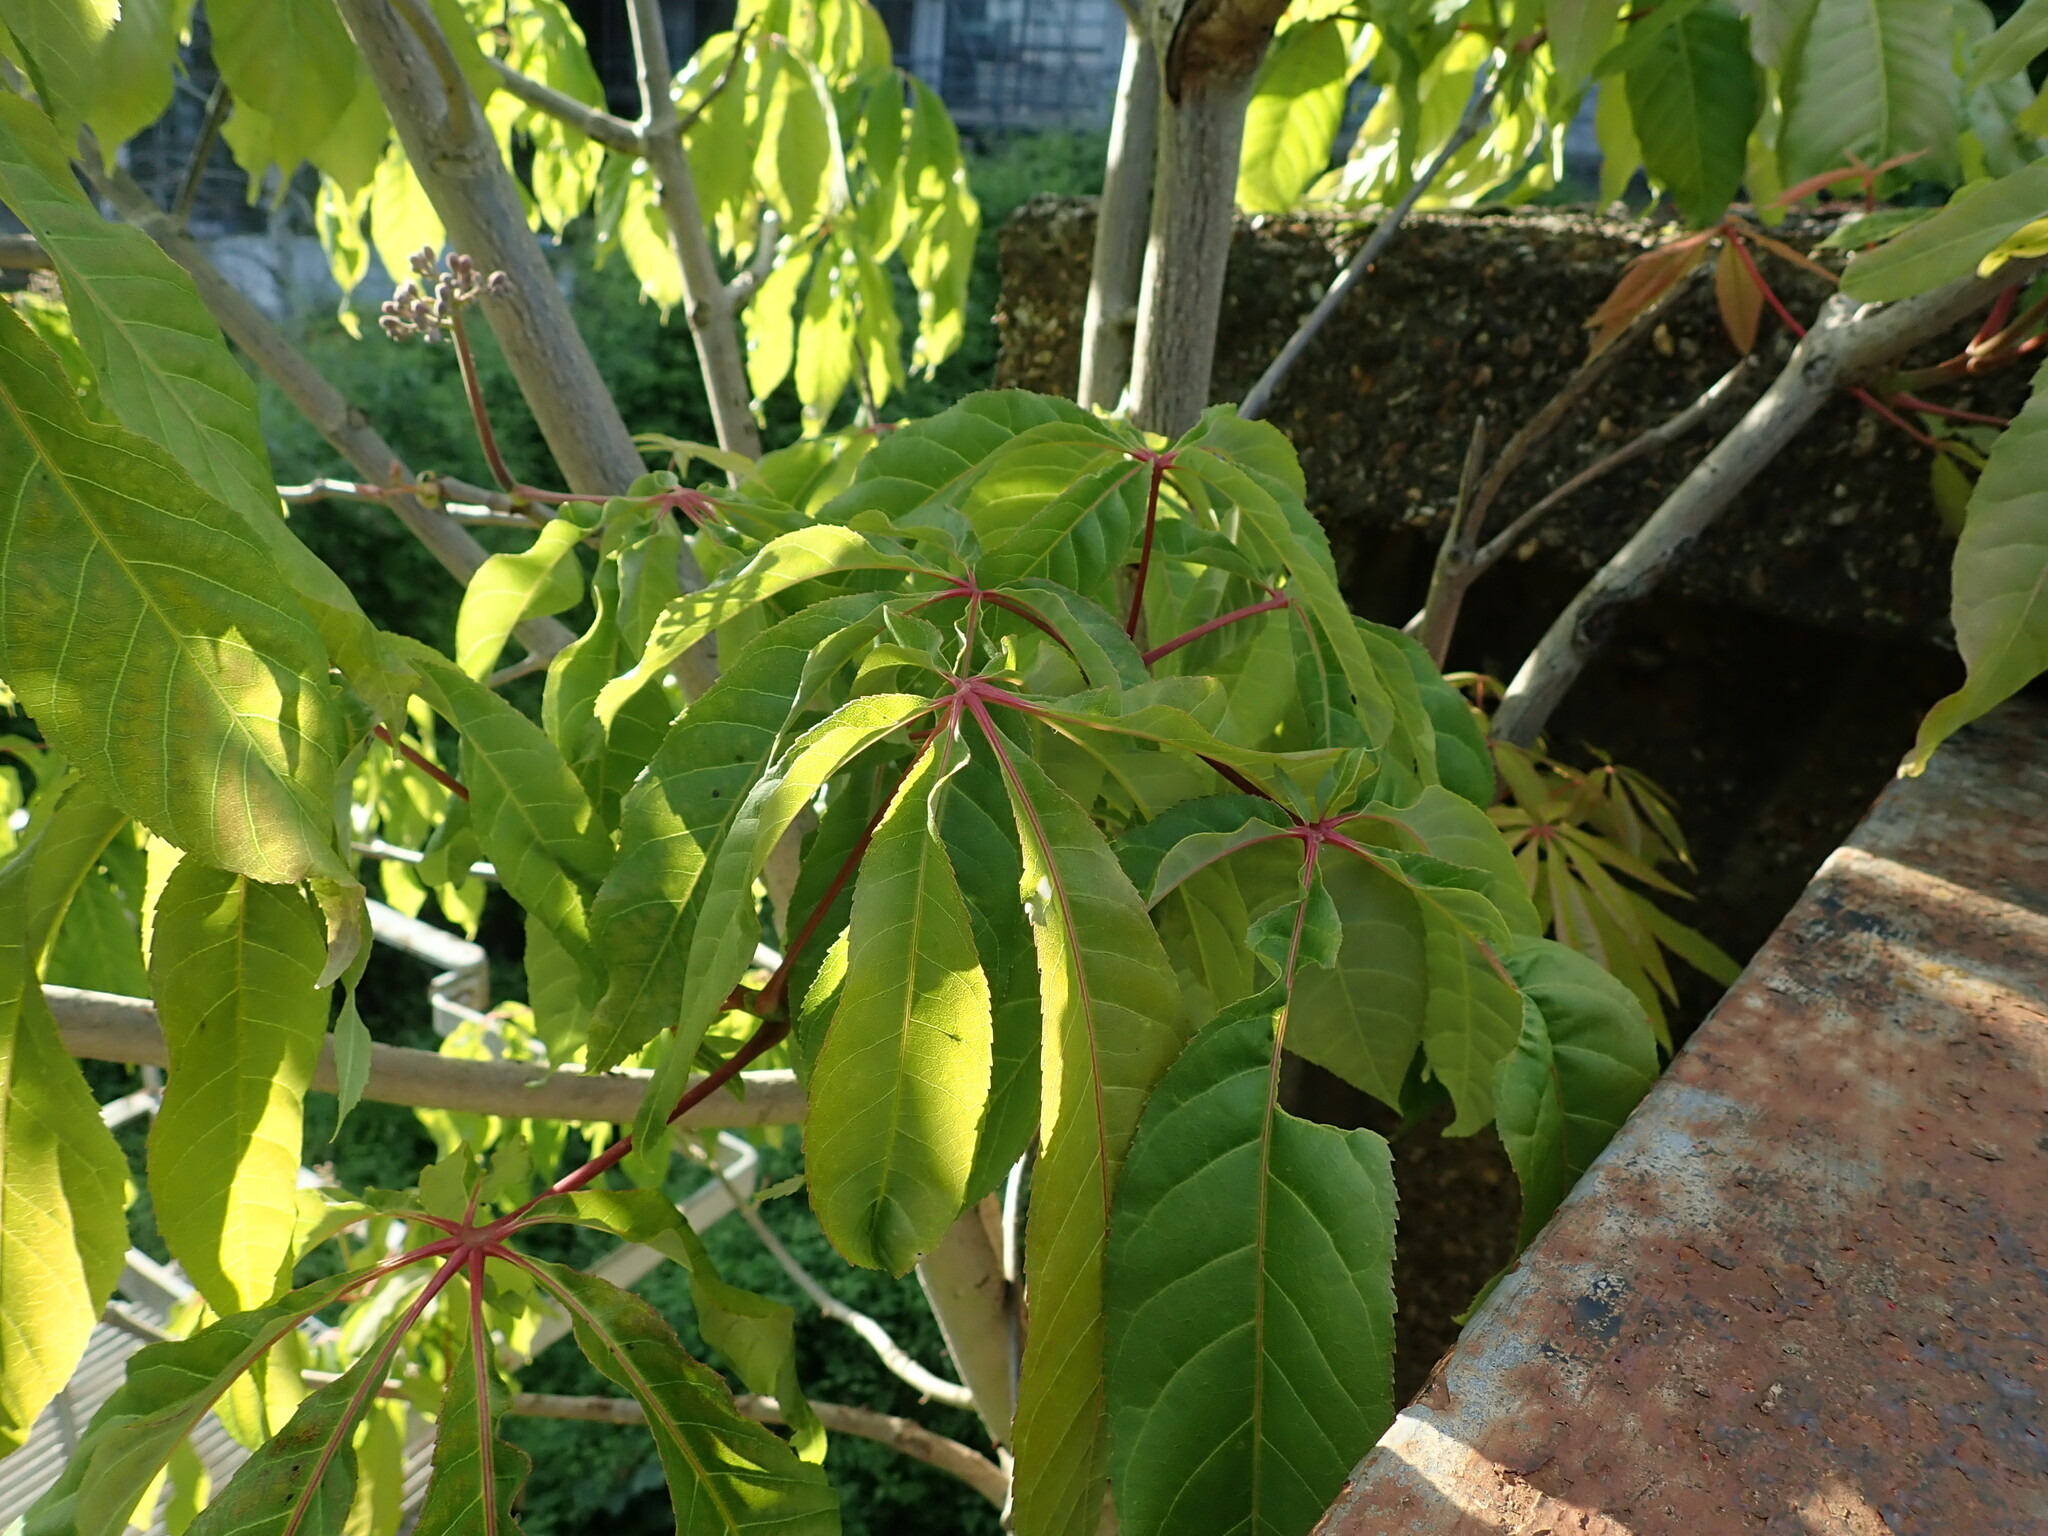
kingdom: Plantae
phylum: Tracheophyta
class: Magnoliopsida
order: Sapindales
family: Sapindaceae
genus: Aesculus
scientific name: Aesculus indica
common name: Indian horse-chestnut
